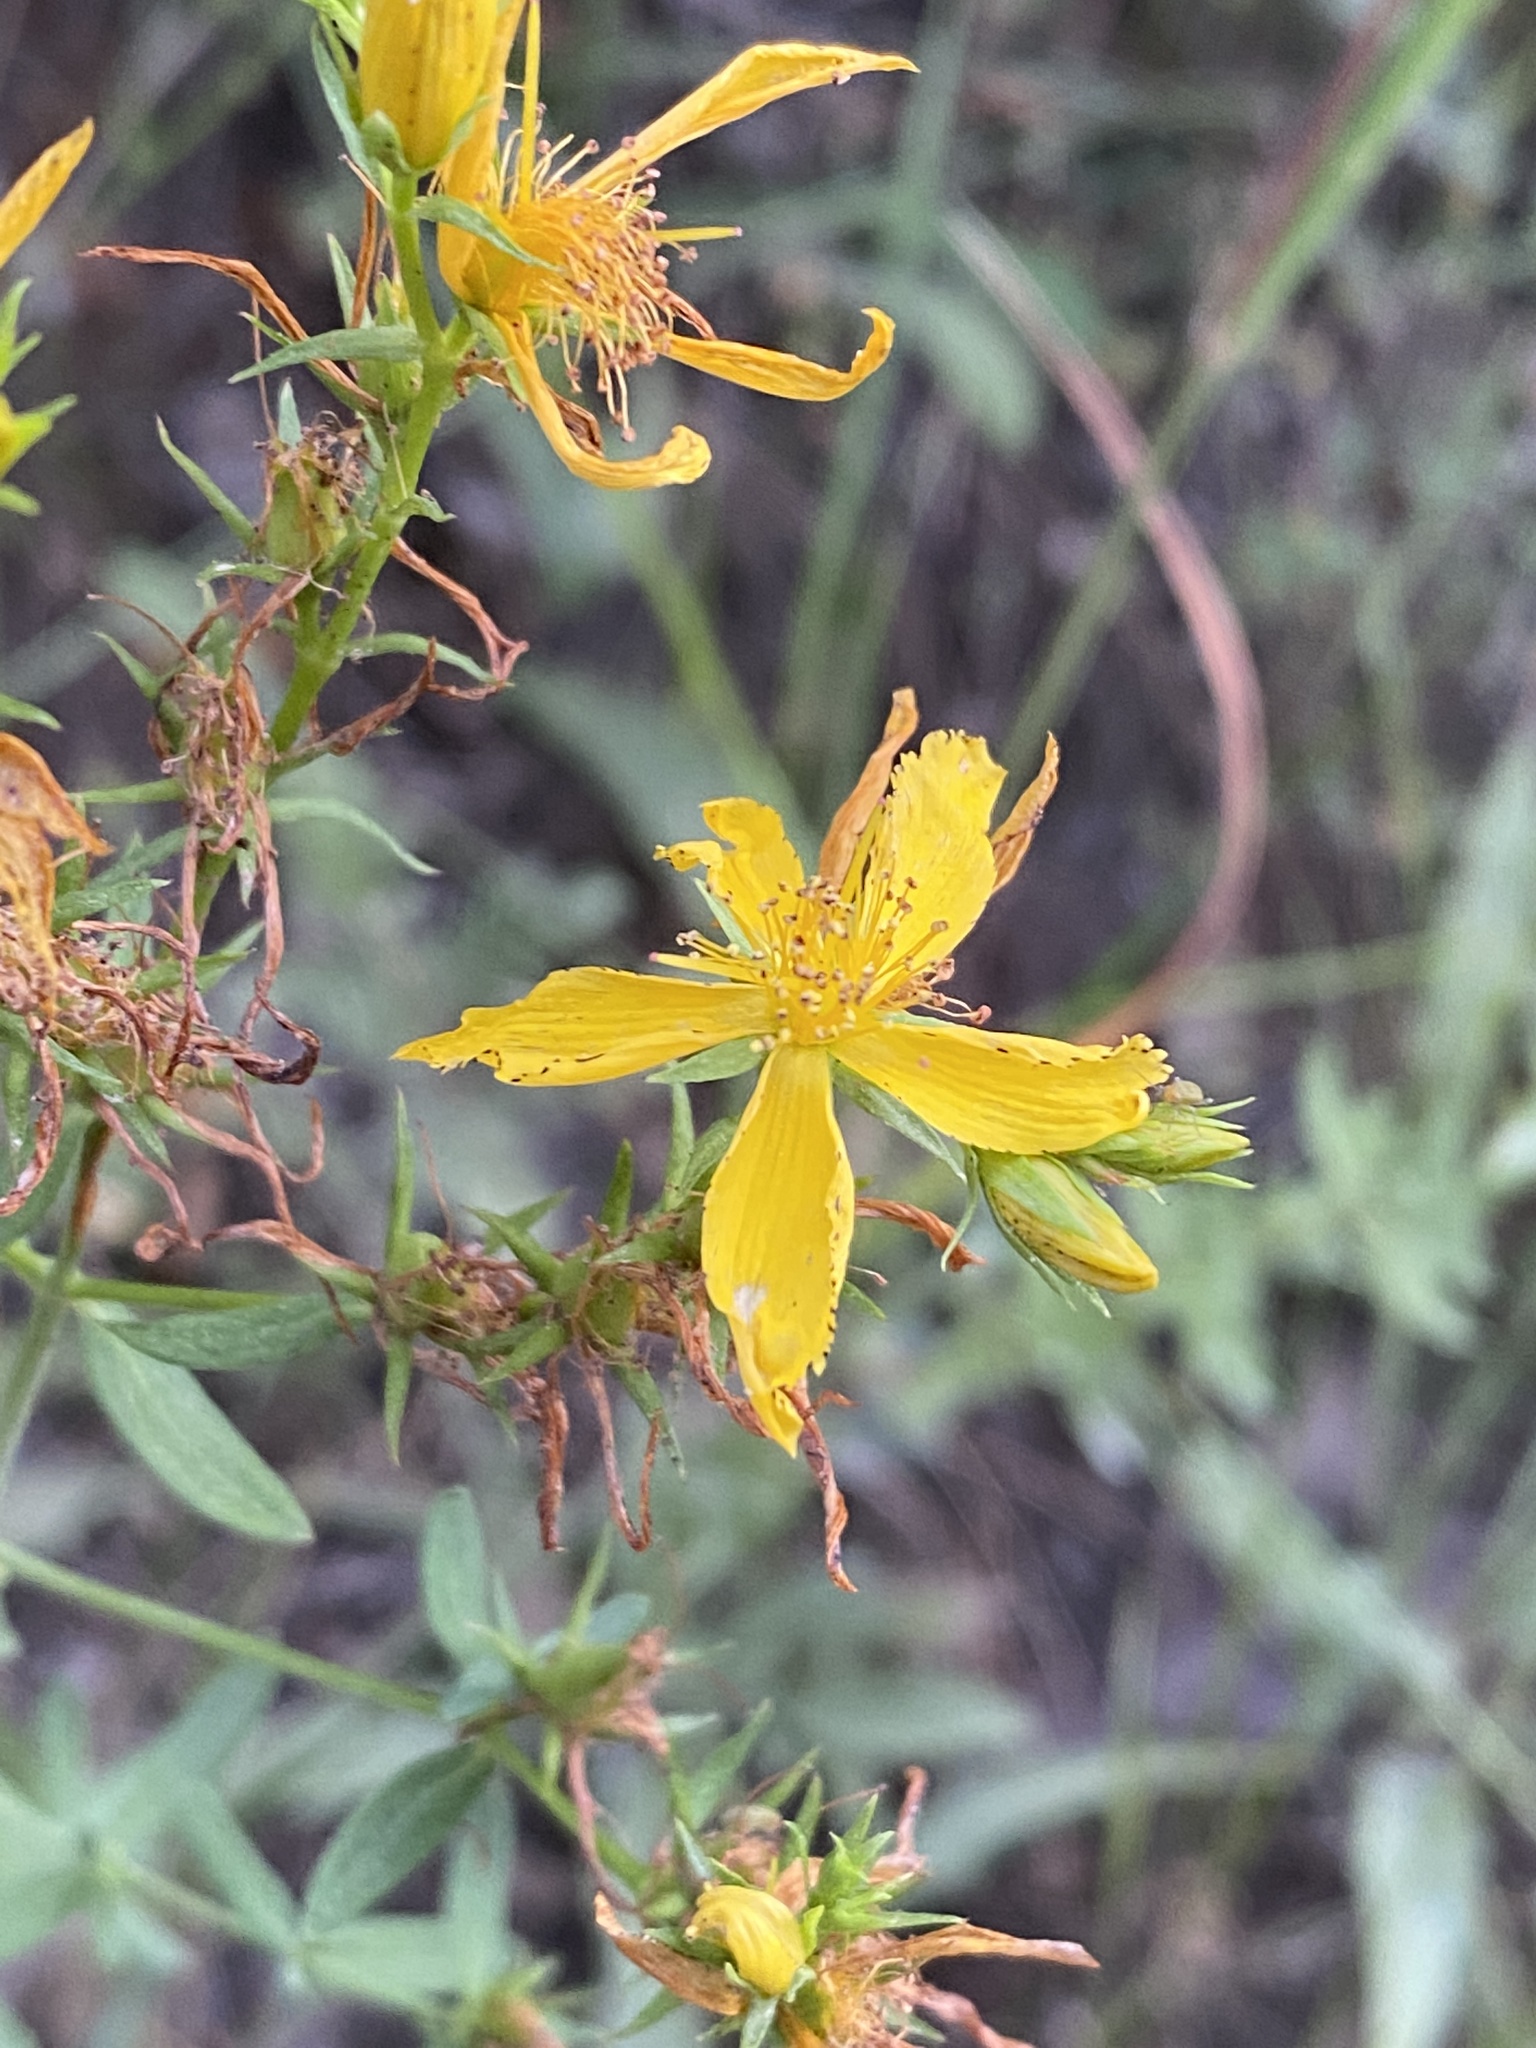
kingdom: Plantae
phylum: Tracheophyta
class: Magnoliopsida
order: Malpighiales
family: Hypericaceae
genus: Hypericum
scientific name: Hypericum perforatum
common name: Common st. johnswort
